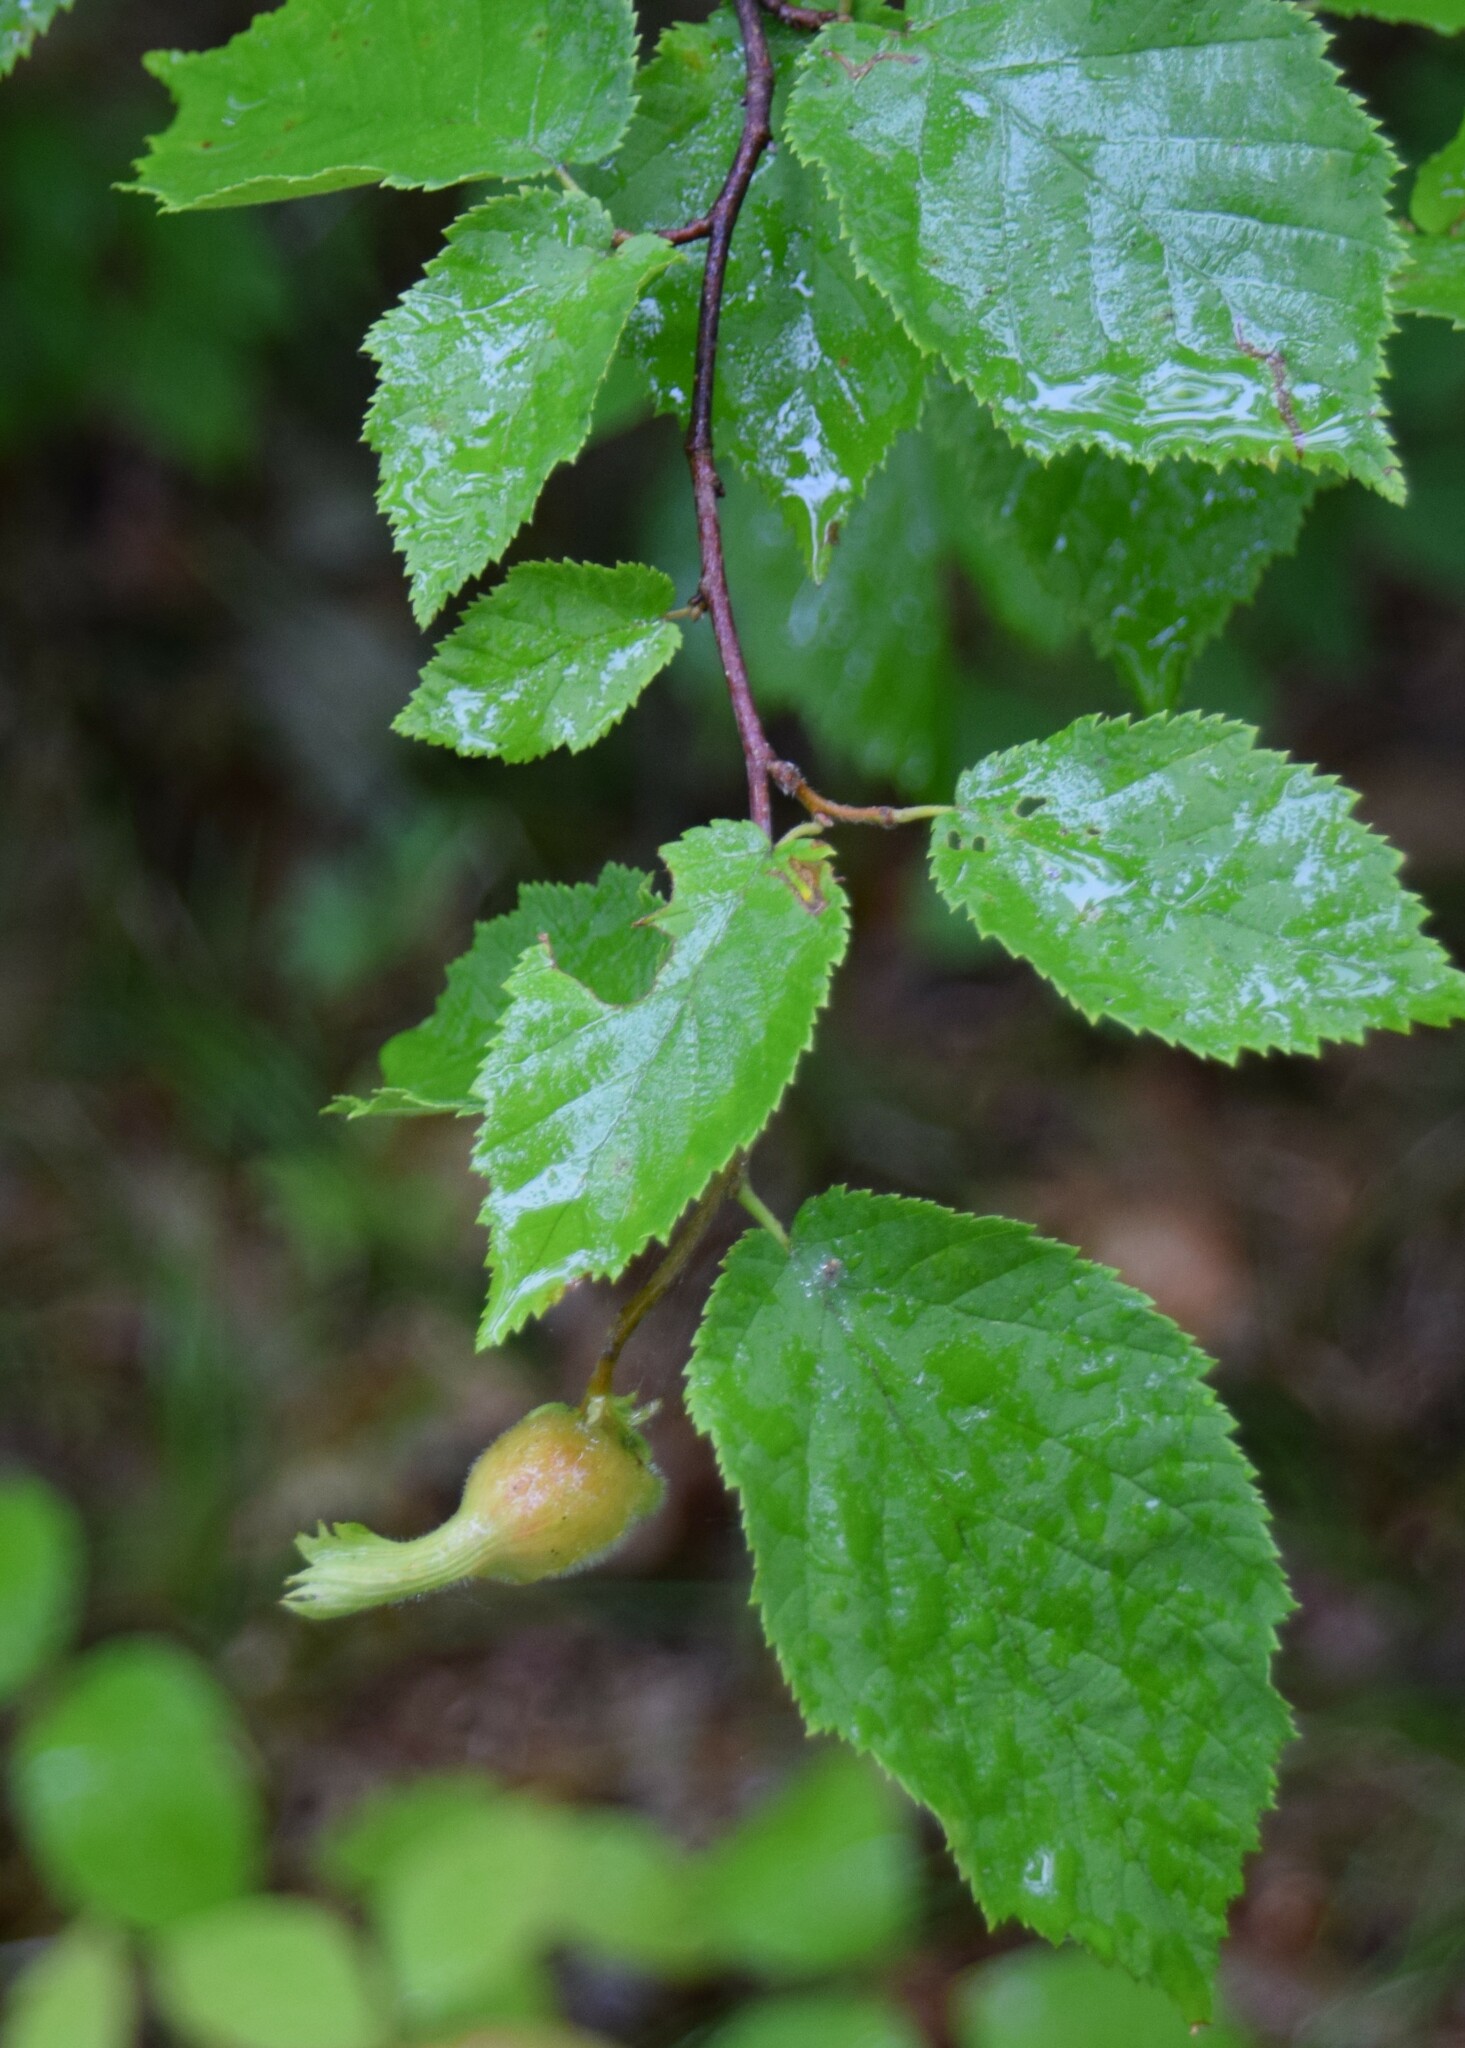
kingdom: Plantae
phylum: Tracheophyta
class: Magnoliopsida
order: Fagales
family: Betulaceae
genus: Corylus
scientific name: Corylus cornuta
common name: Beaked hazel
